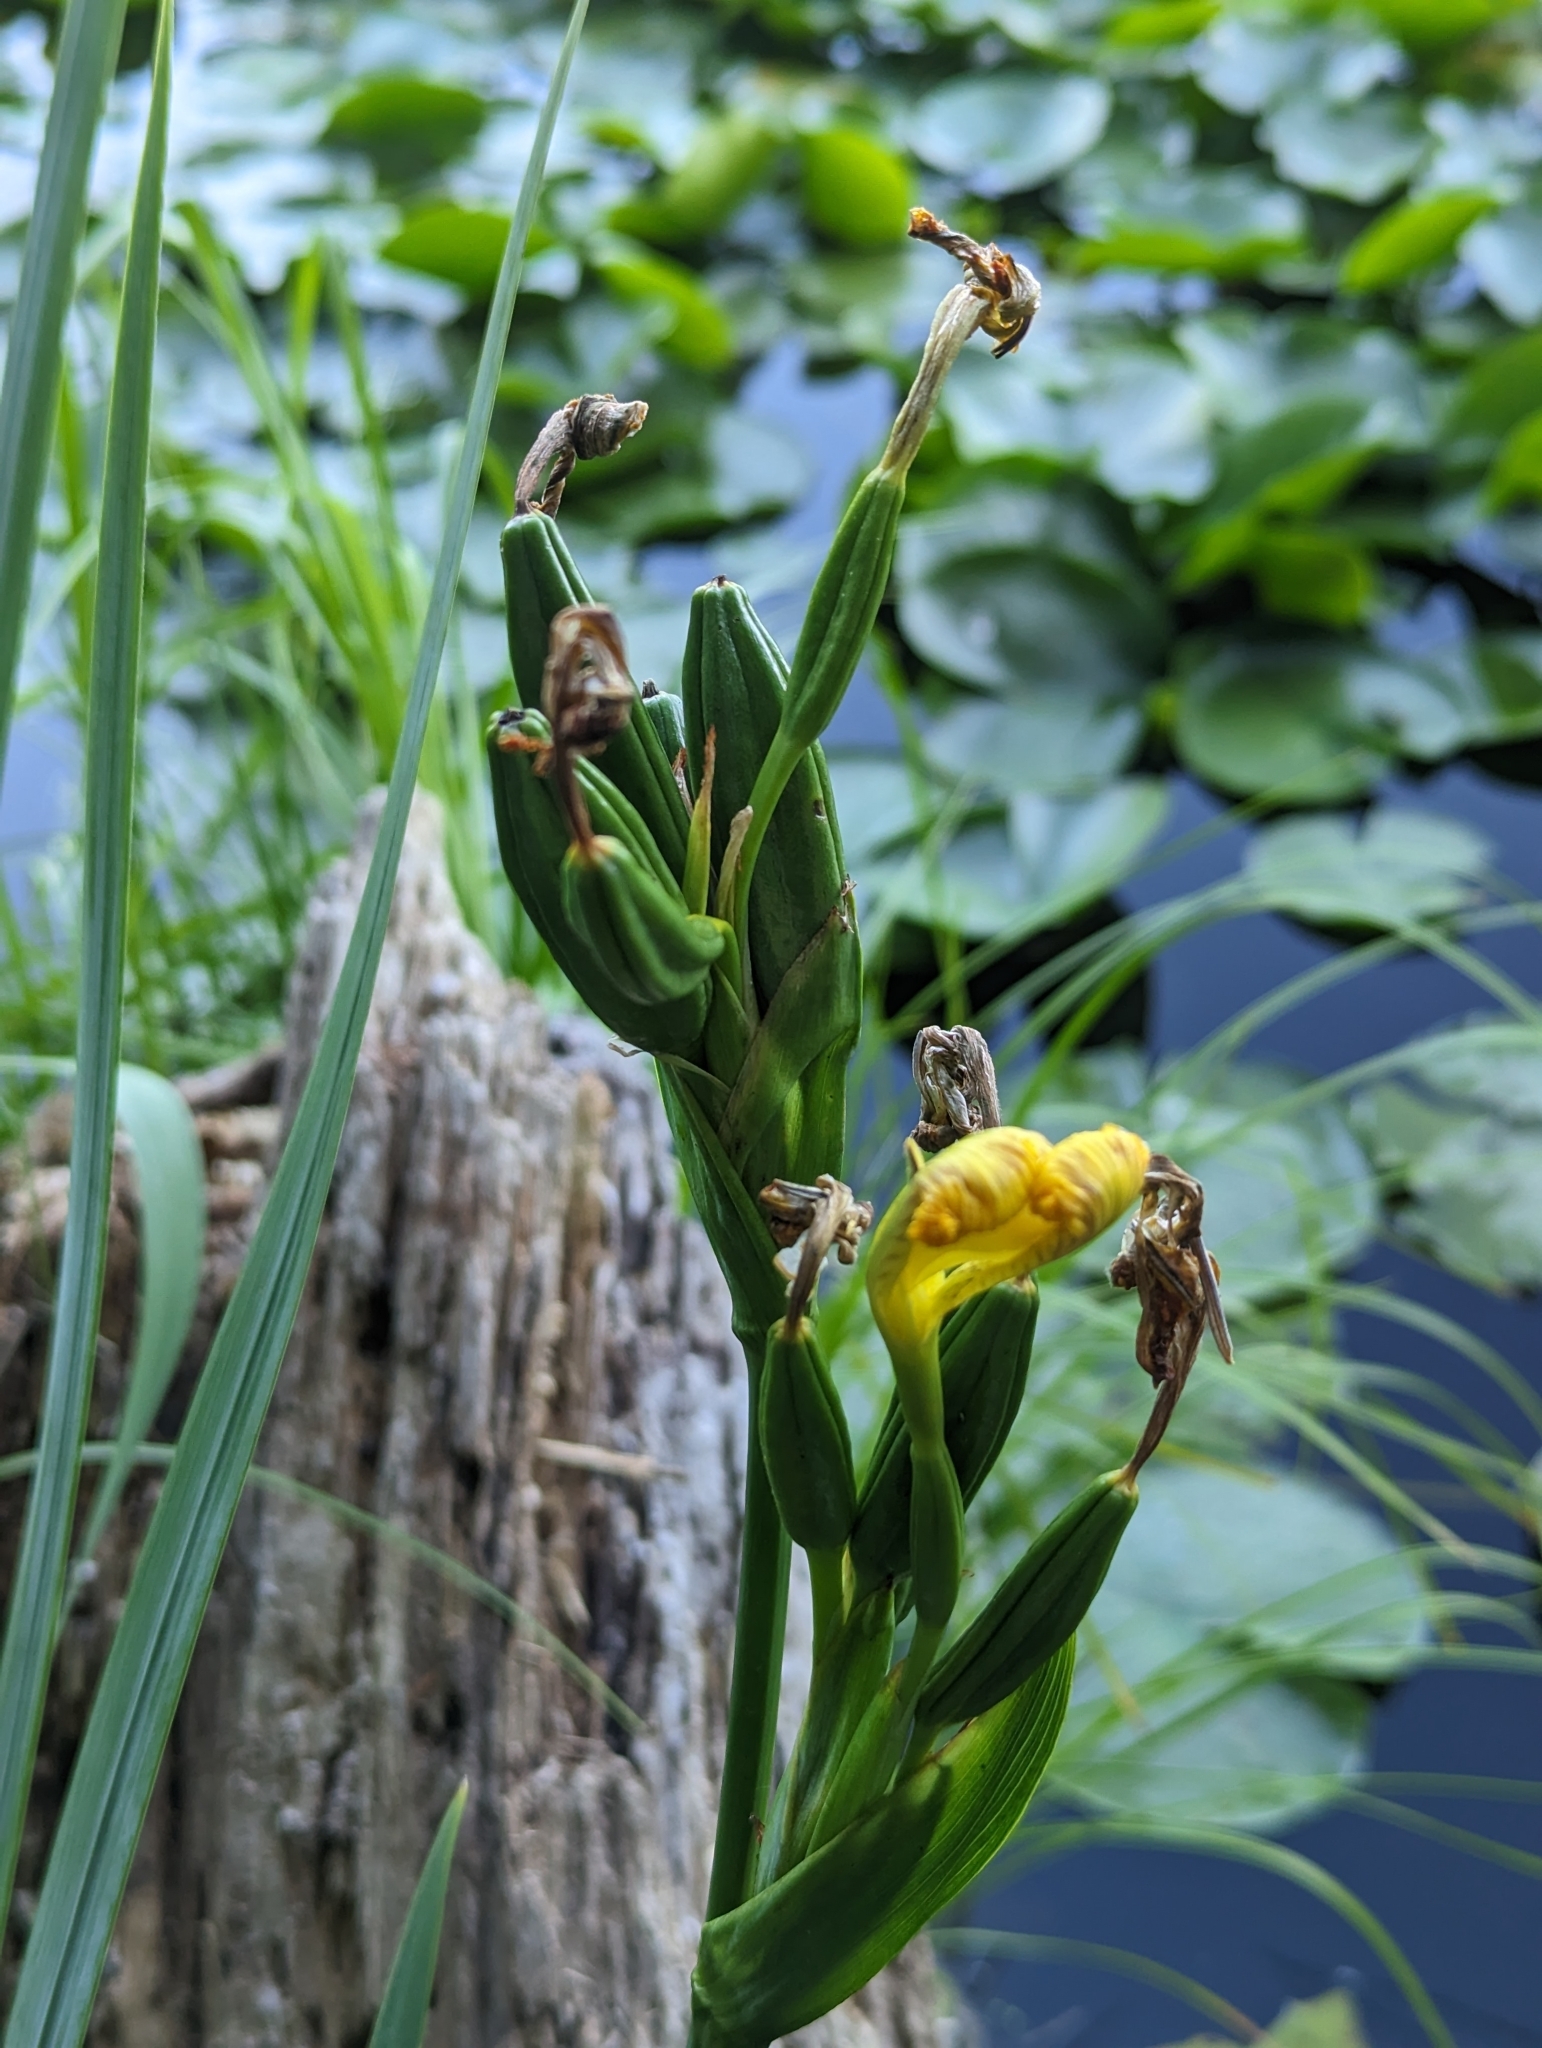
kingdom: Plantae
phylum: Tracheophyta
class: Liliopsida
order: Asparagales
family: Iridaceae
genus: Iris
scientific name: Iris pseudacorus
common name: Yellow flag
